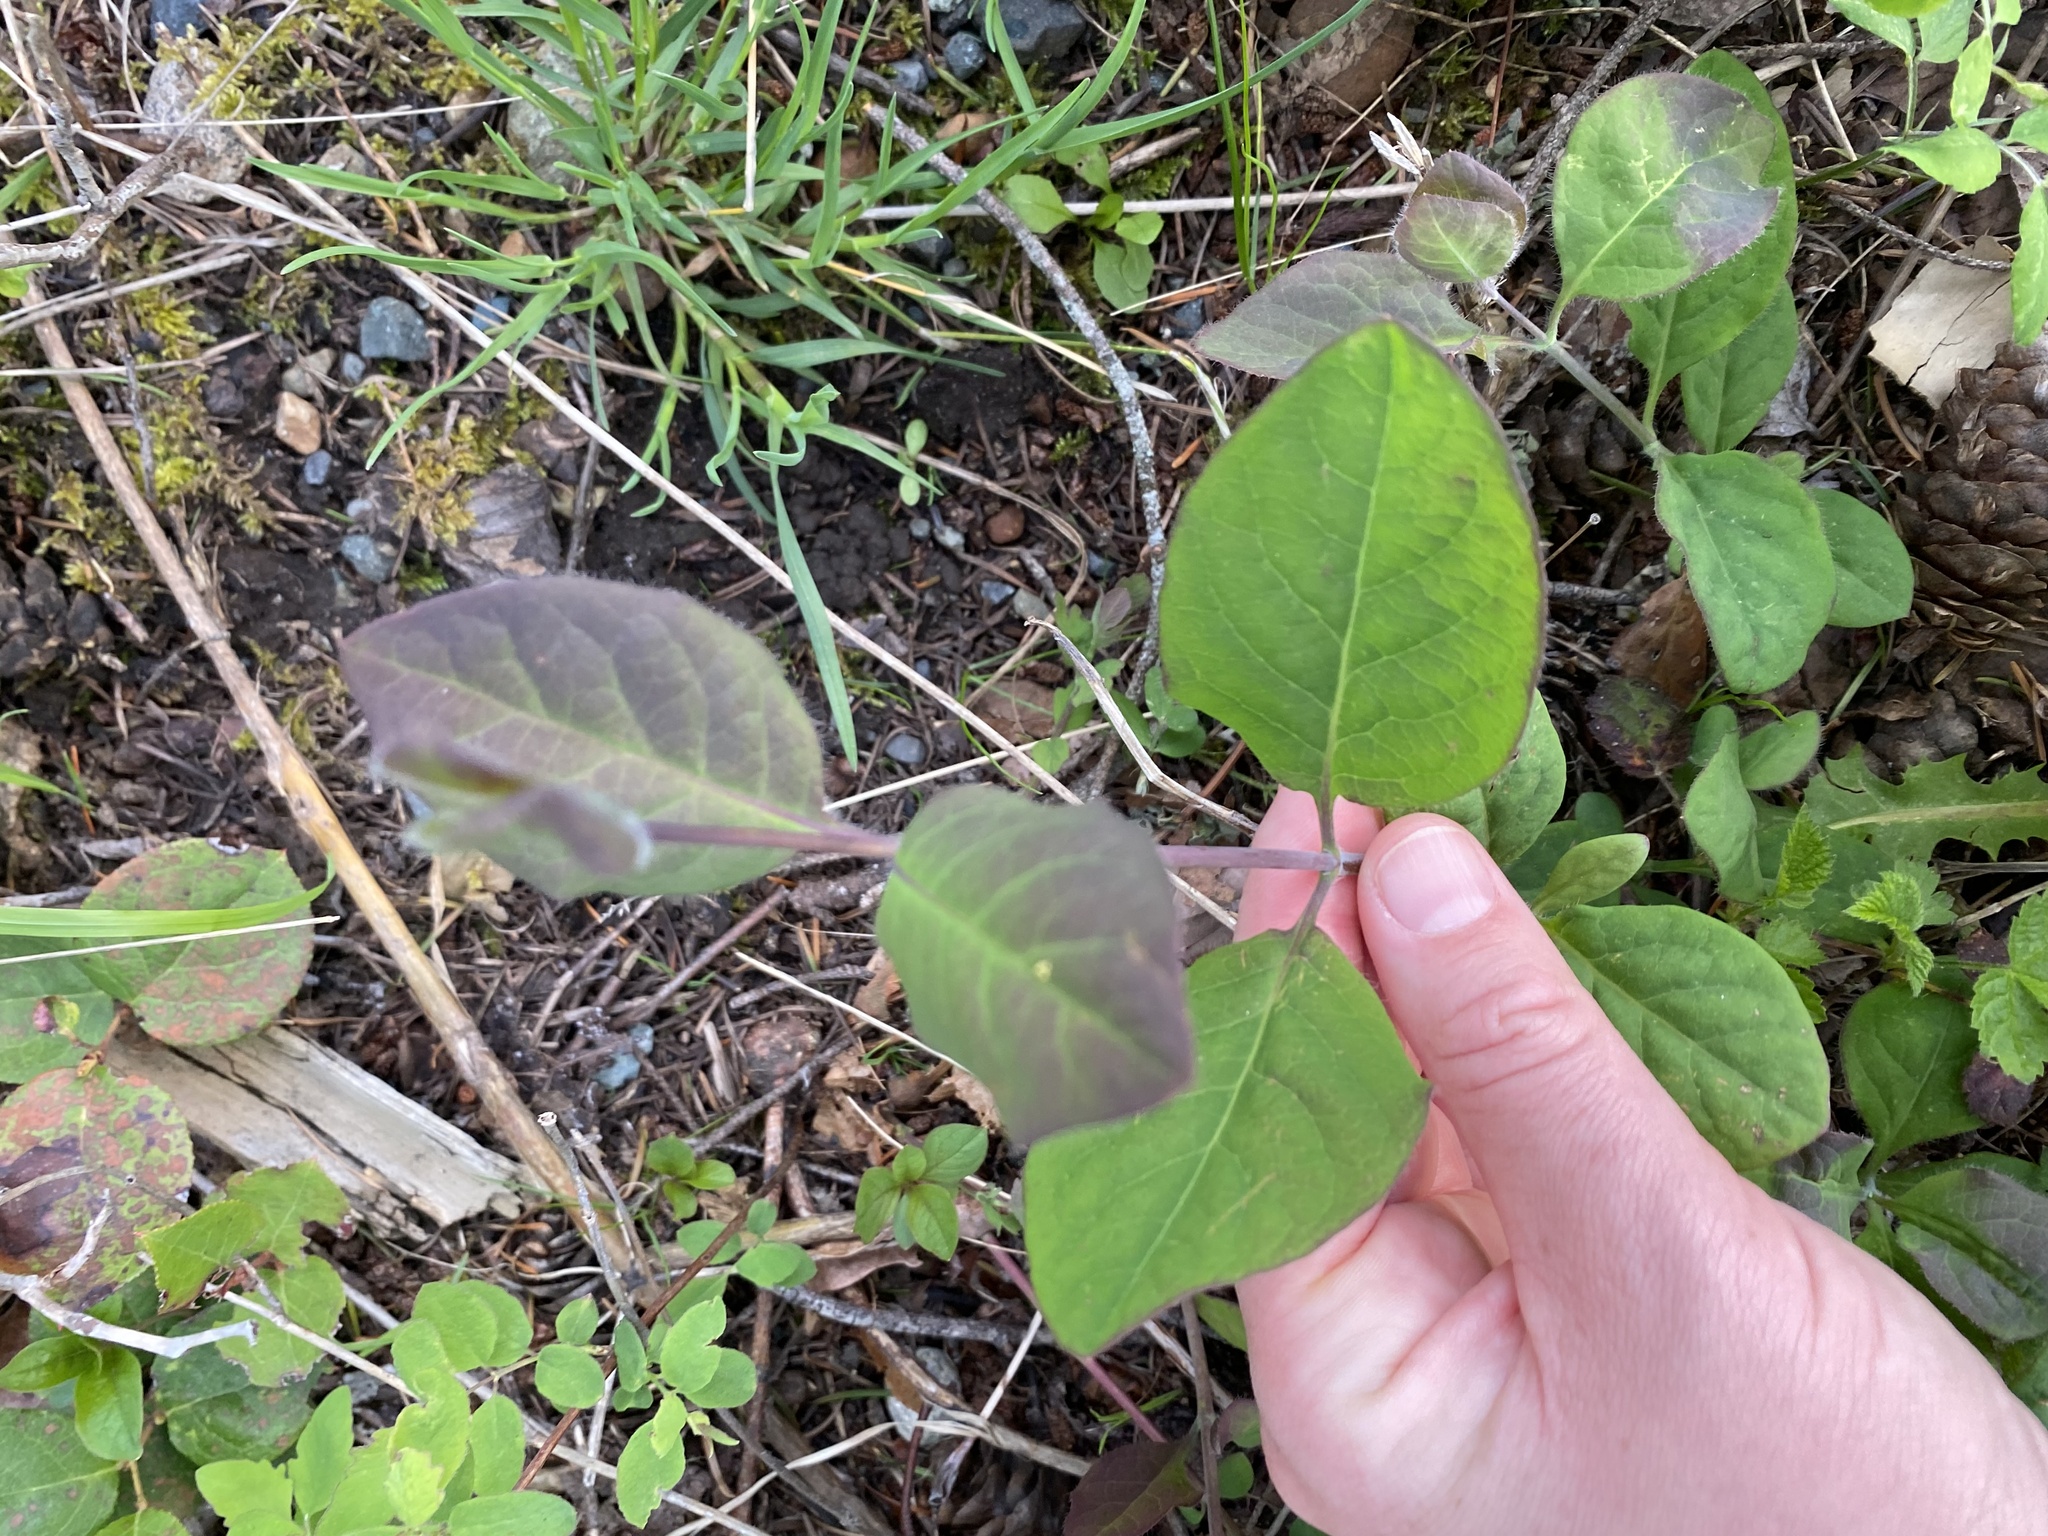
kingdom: Plantae
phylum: Tracheophyta
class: Magnoliopsida
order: Dipsacales
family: Caprifoliaceae
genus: Lonicera
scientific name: Lonicera ciliosa
